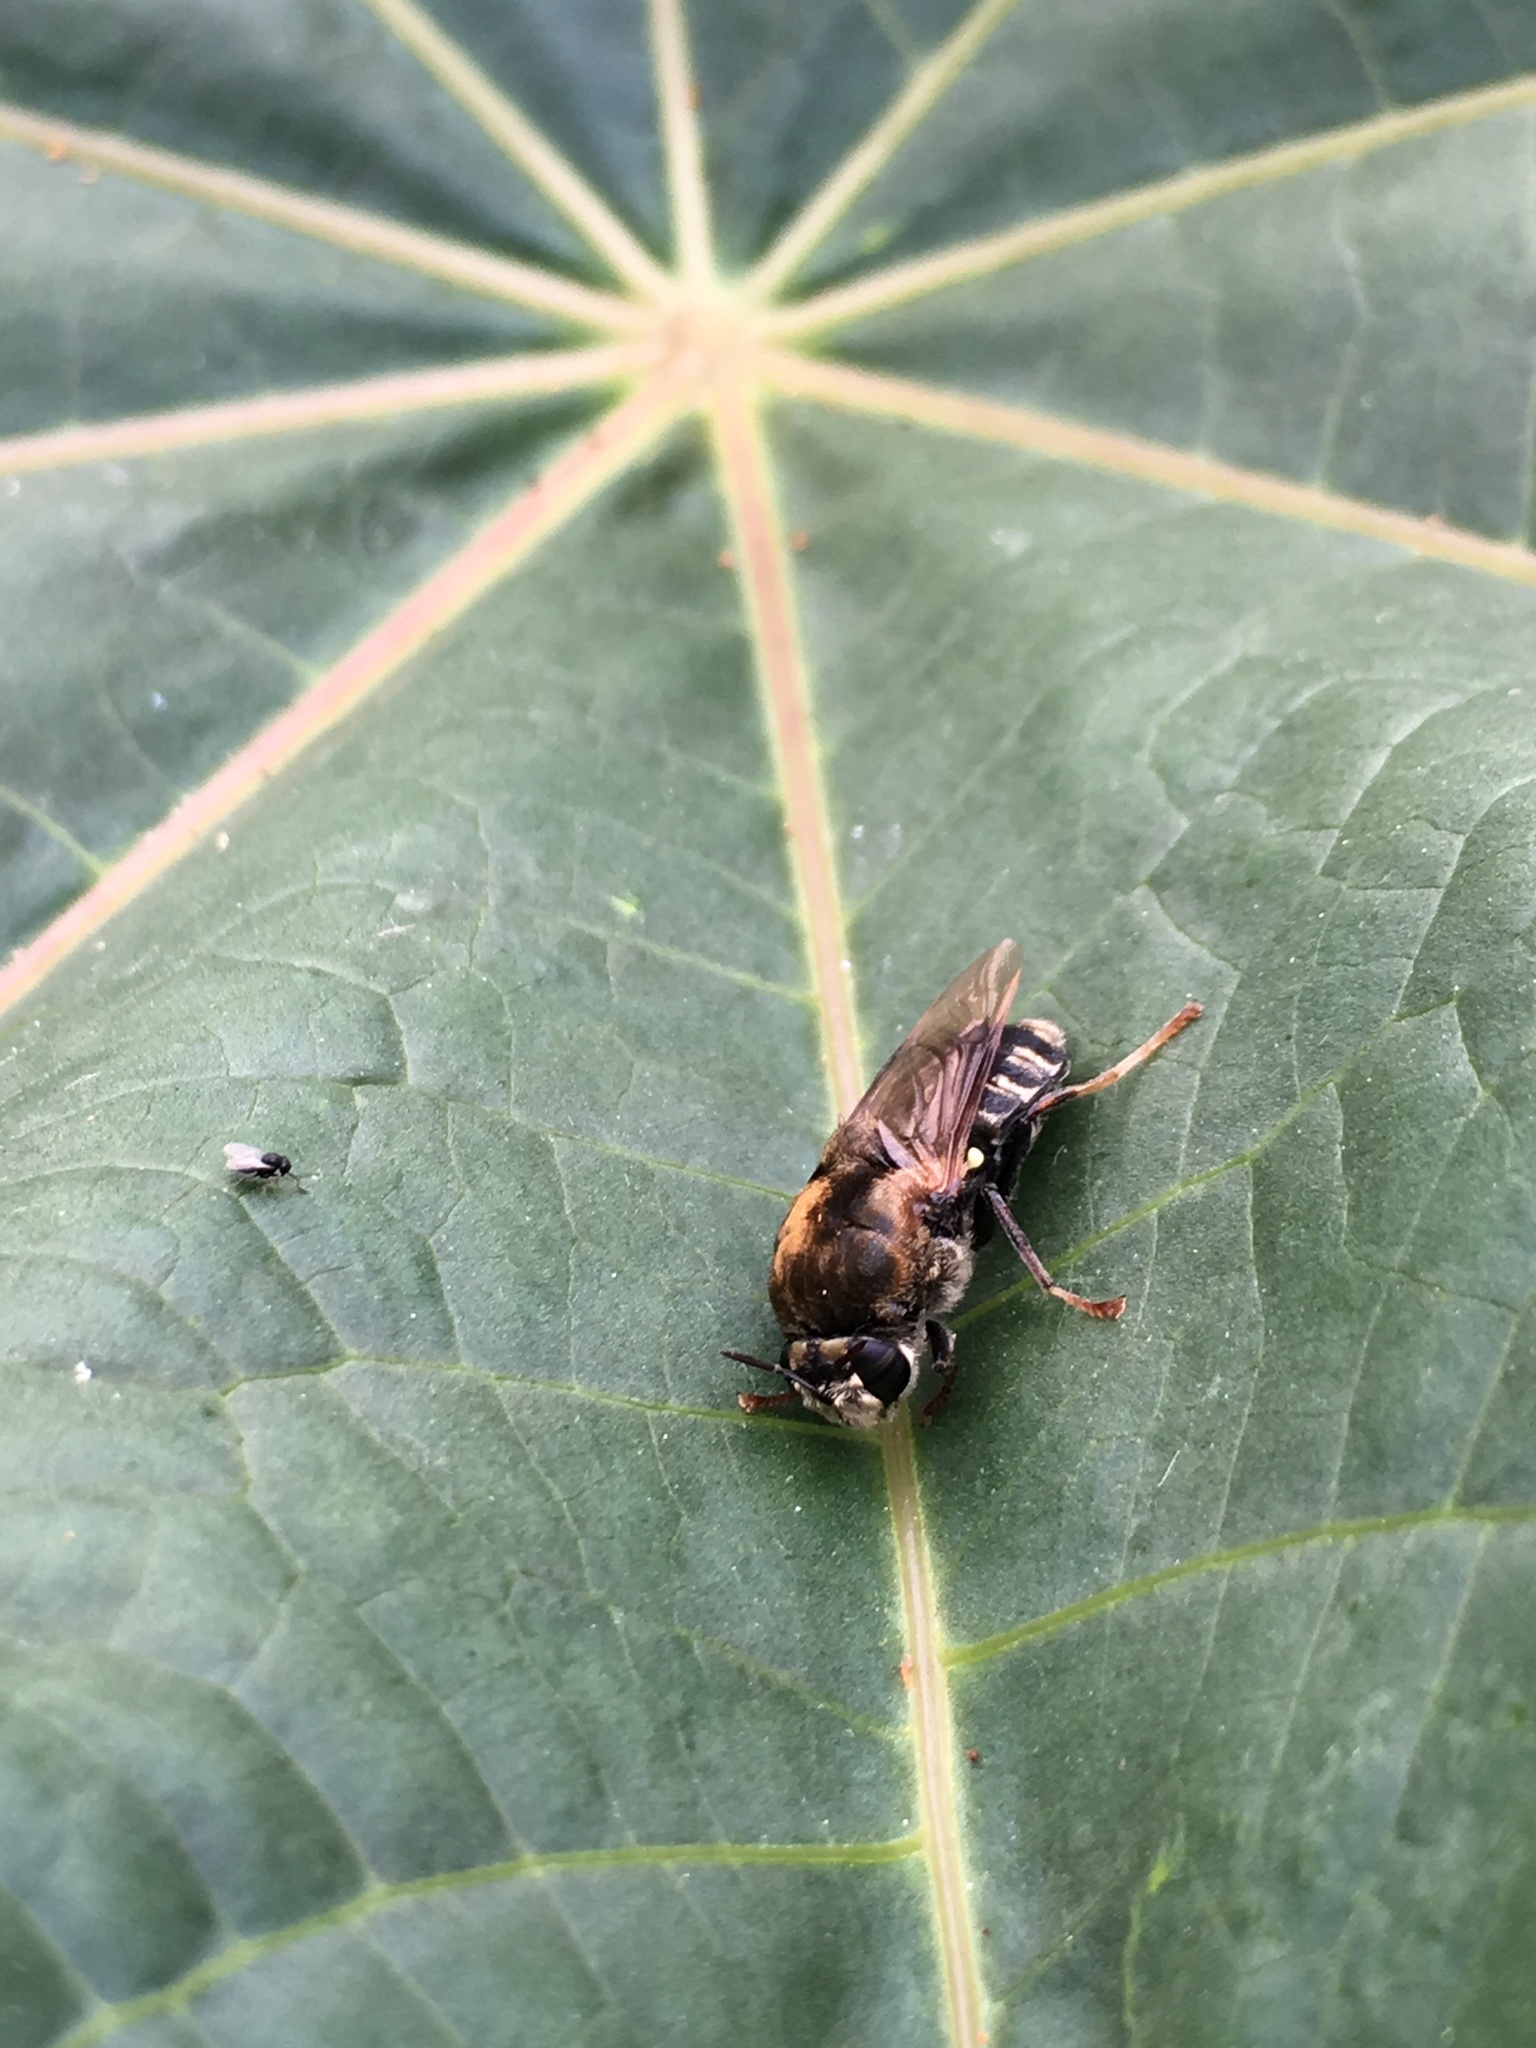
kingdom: Animalia
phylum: Arthropoda
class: Insecta
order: Diptera
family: Stratiomyidae
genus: Stratiomys
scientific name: Stratiomys constricta
